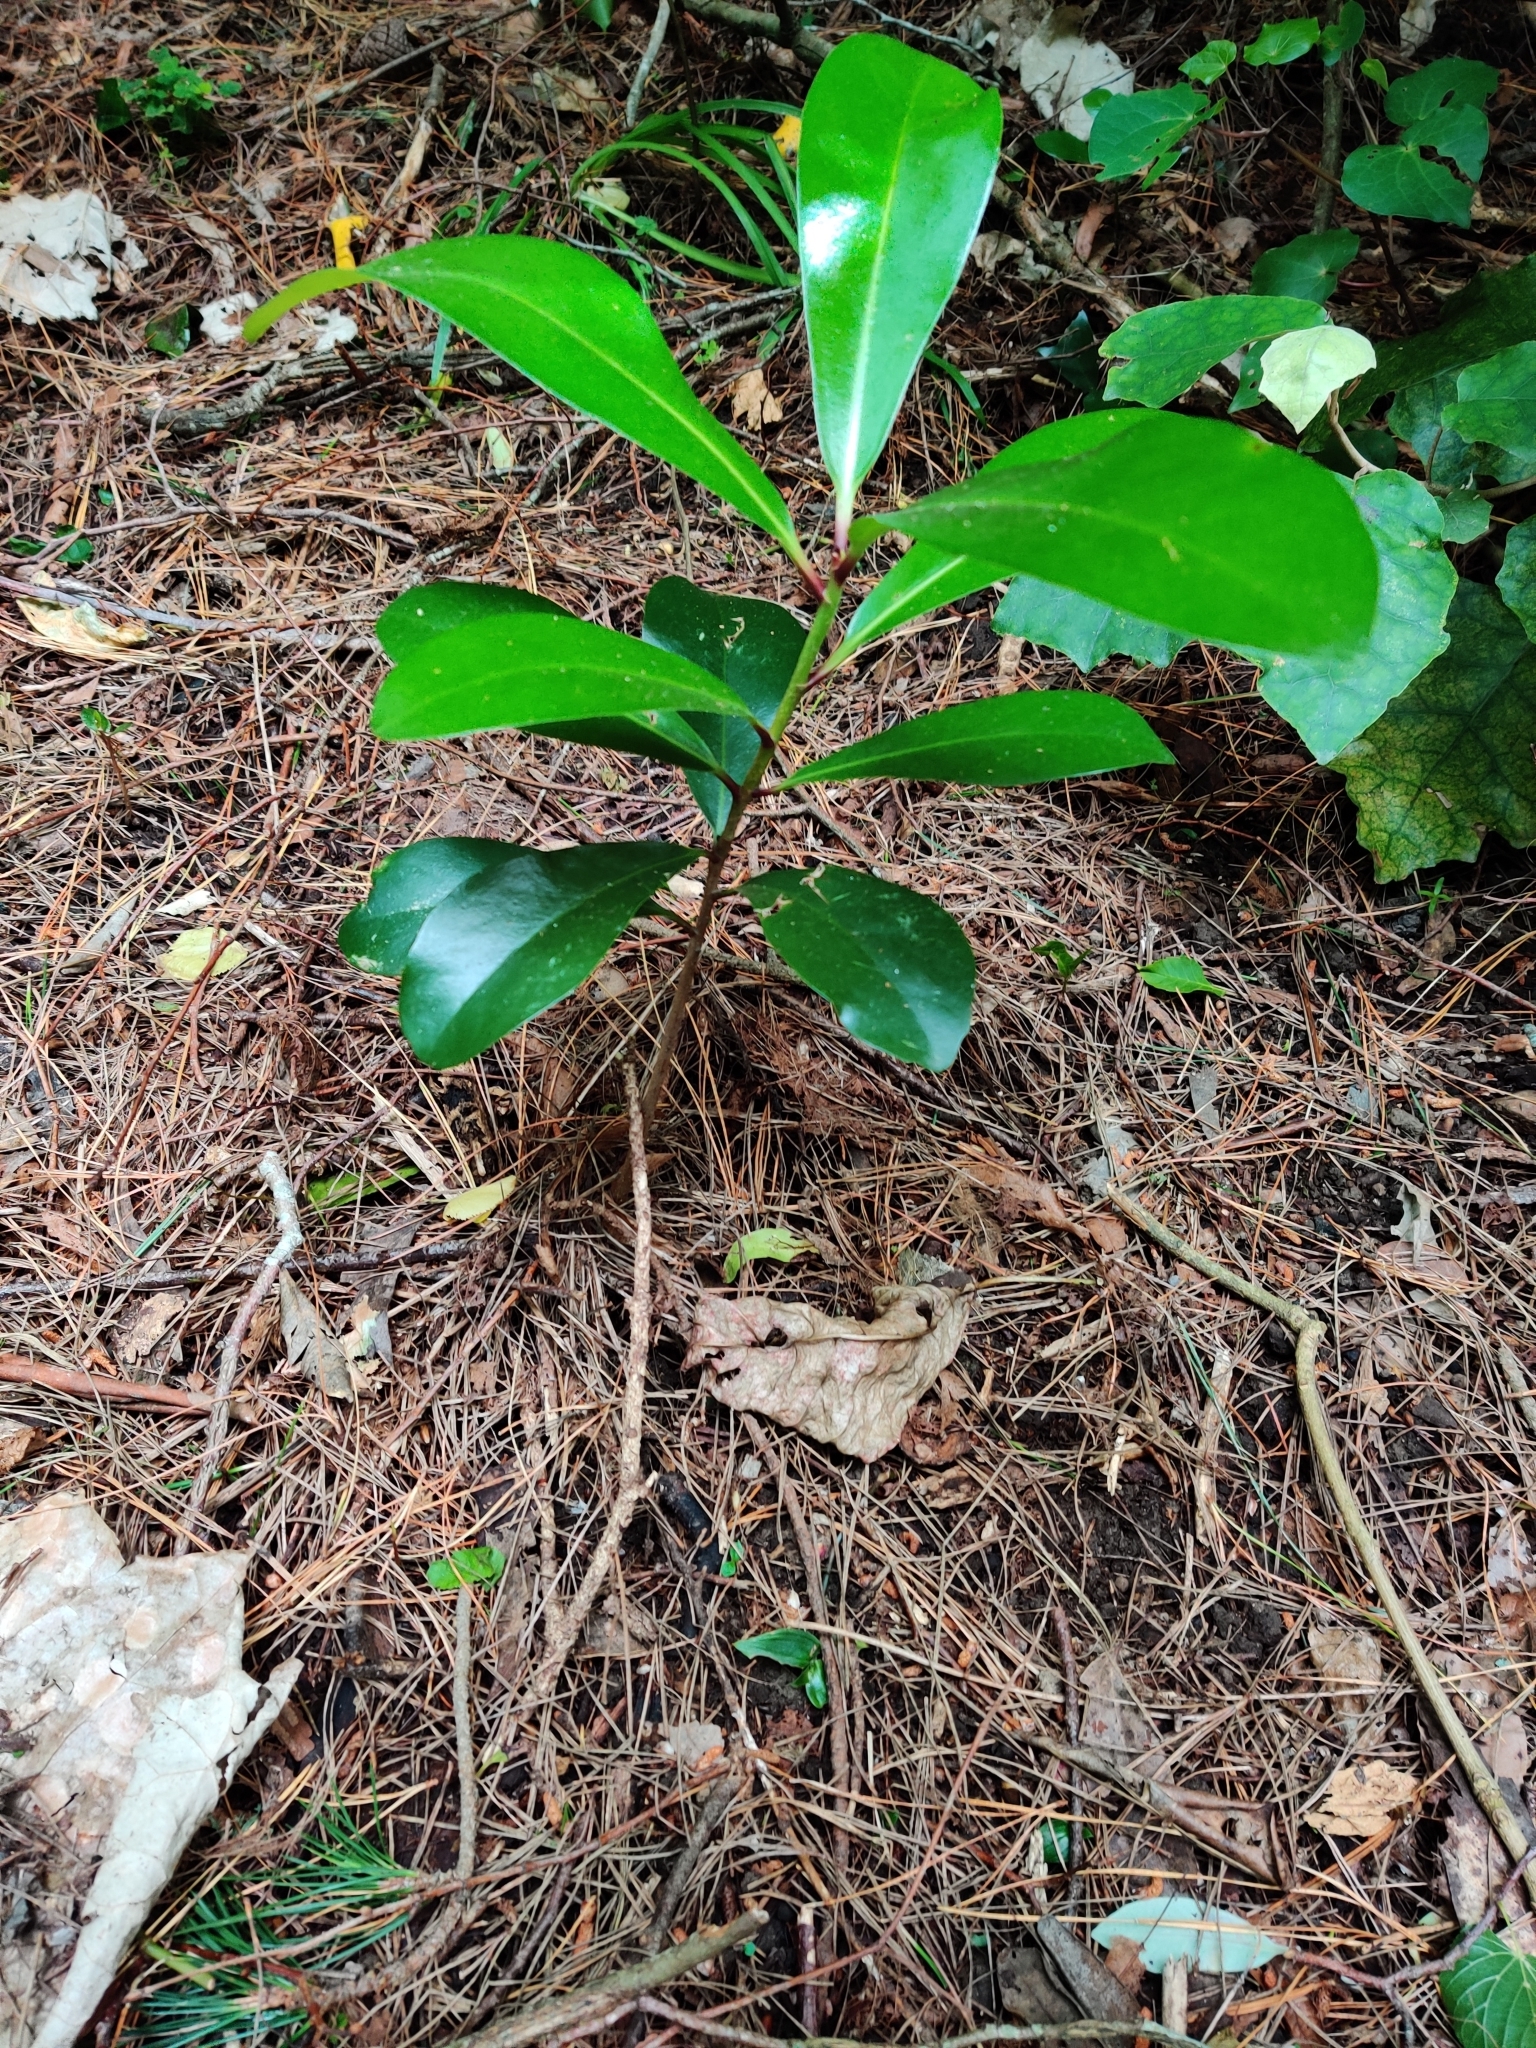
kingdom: Plantae
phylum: Tracheophyta
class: Magnoliopsida
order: Cucurbitales
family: Corynocarpaceae
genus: Corynocarpus
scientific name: Corynocarpus laevigatus
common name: New zealand laurel
